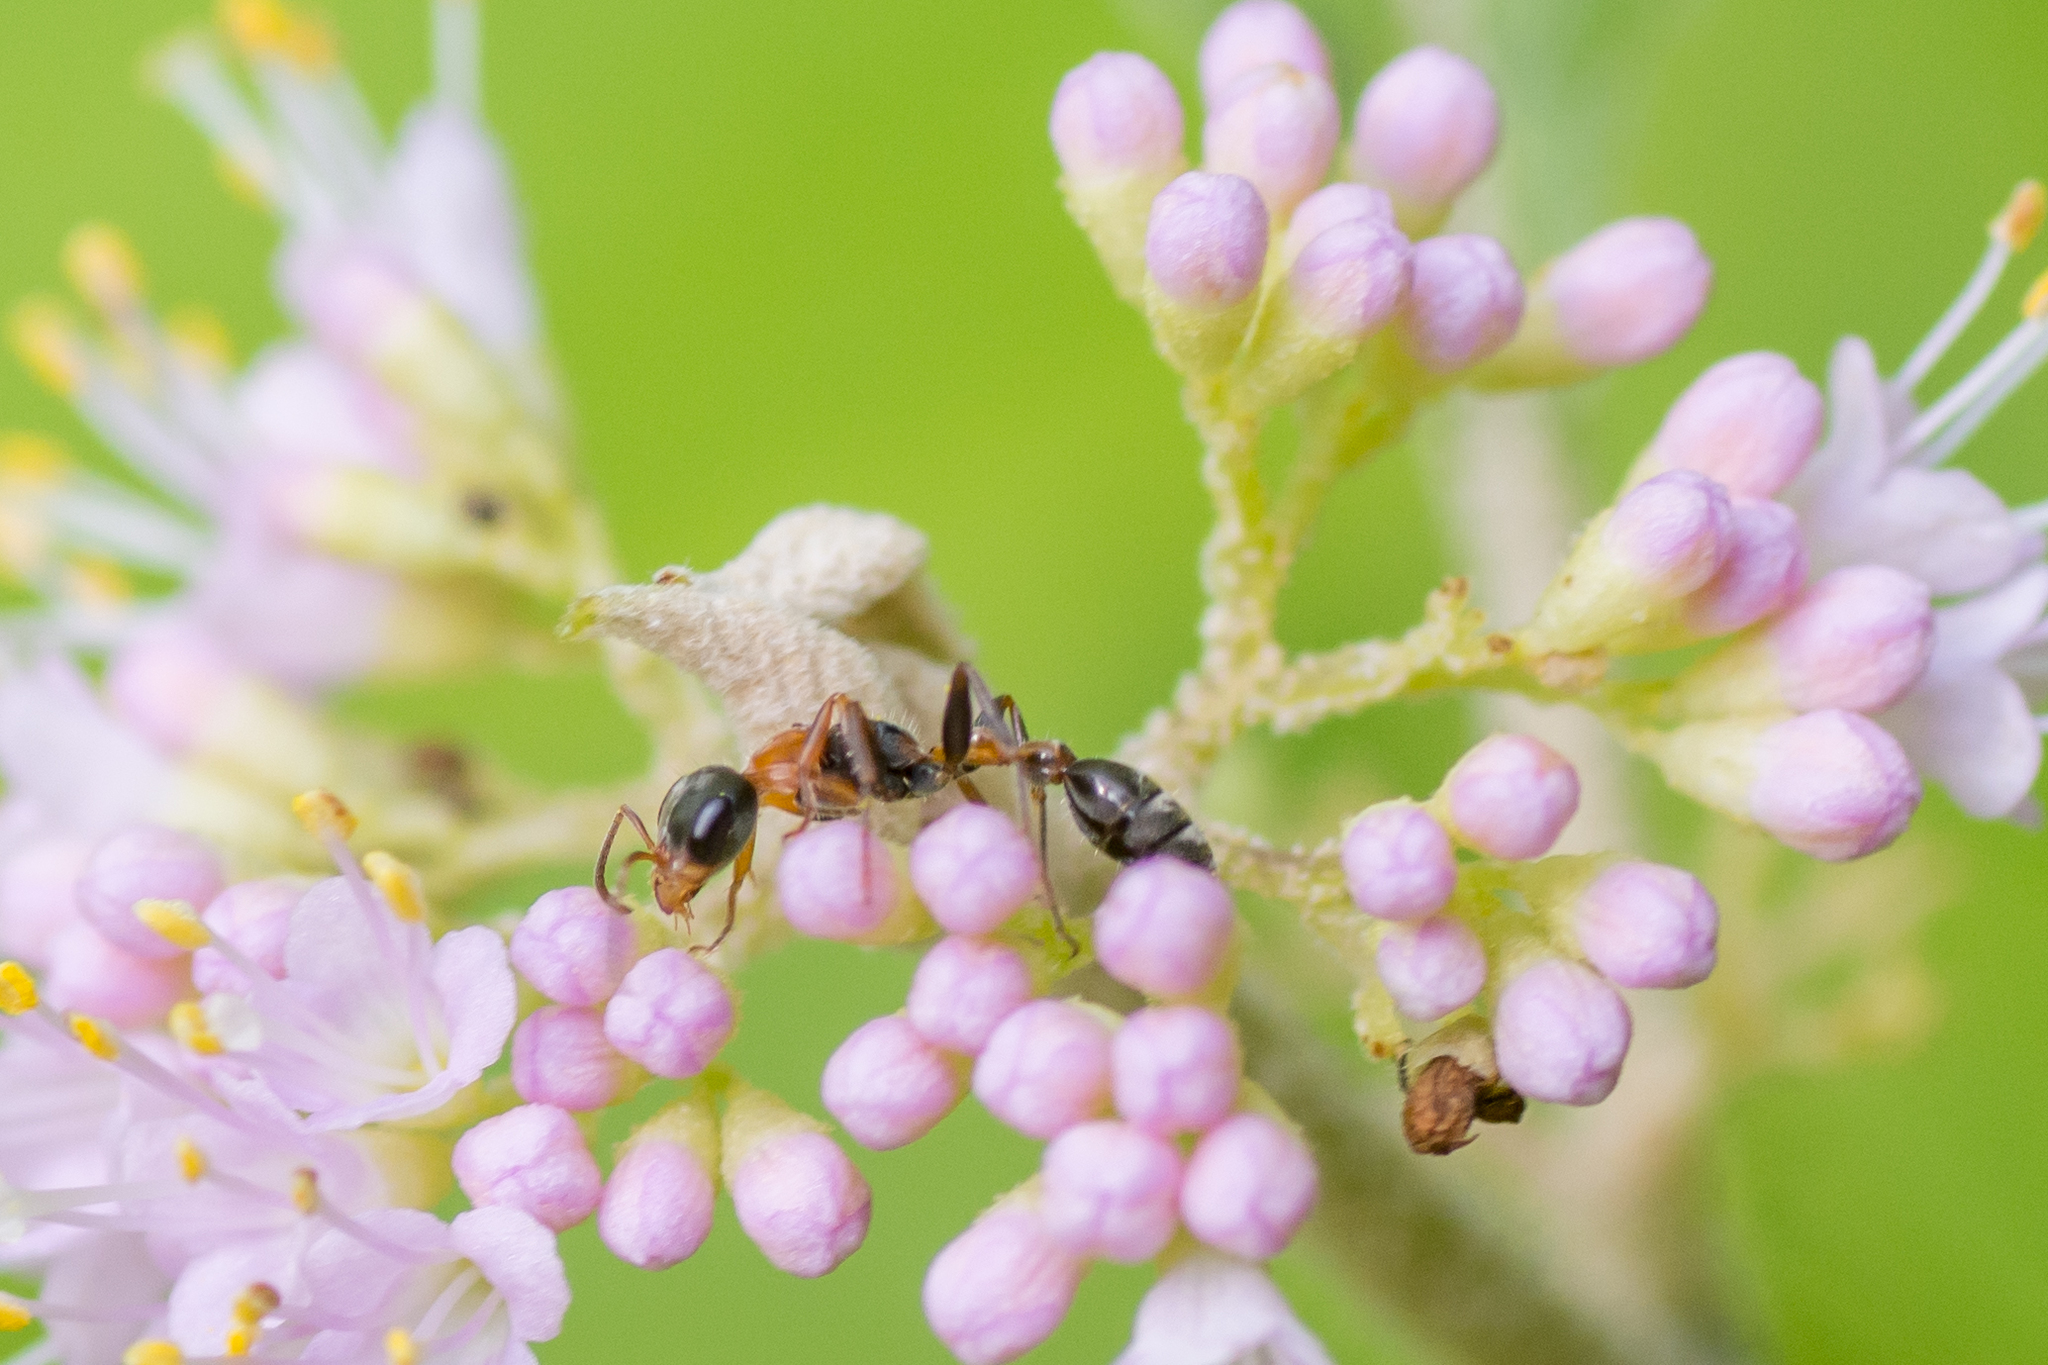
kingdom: Animalia
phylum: Arthropoda
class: Insecta
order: Hymenoptera
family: Formicidae
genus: Pseudomyrmex
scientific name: Pseudomyrmex gracilis
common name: Graceful twig ant
